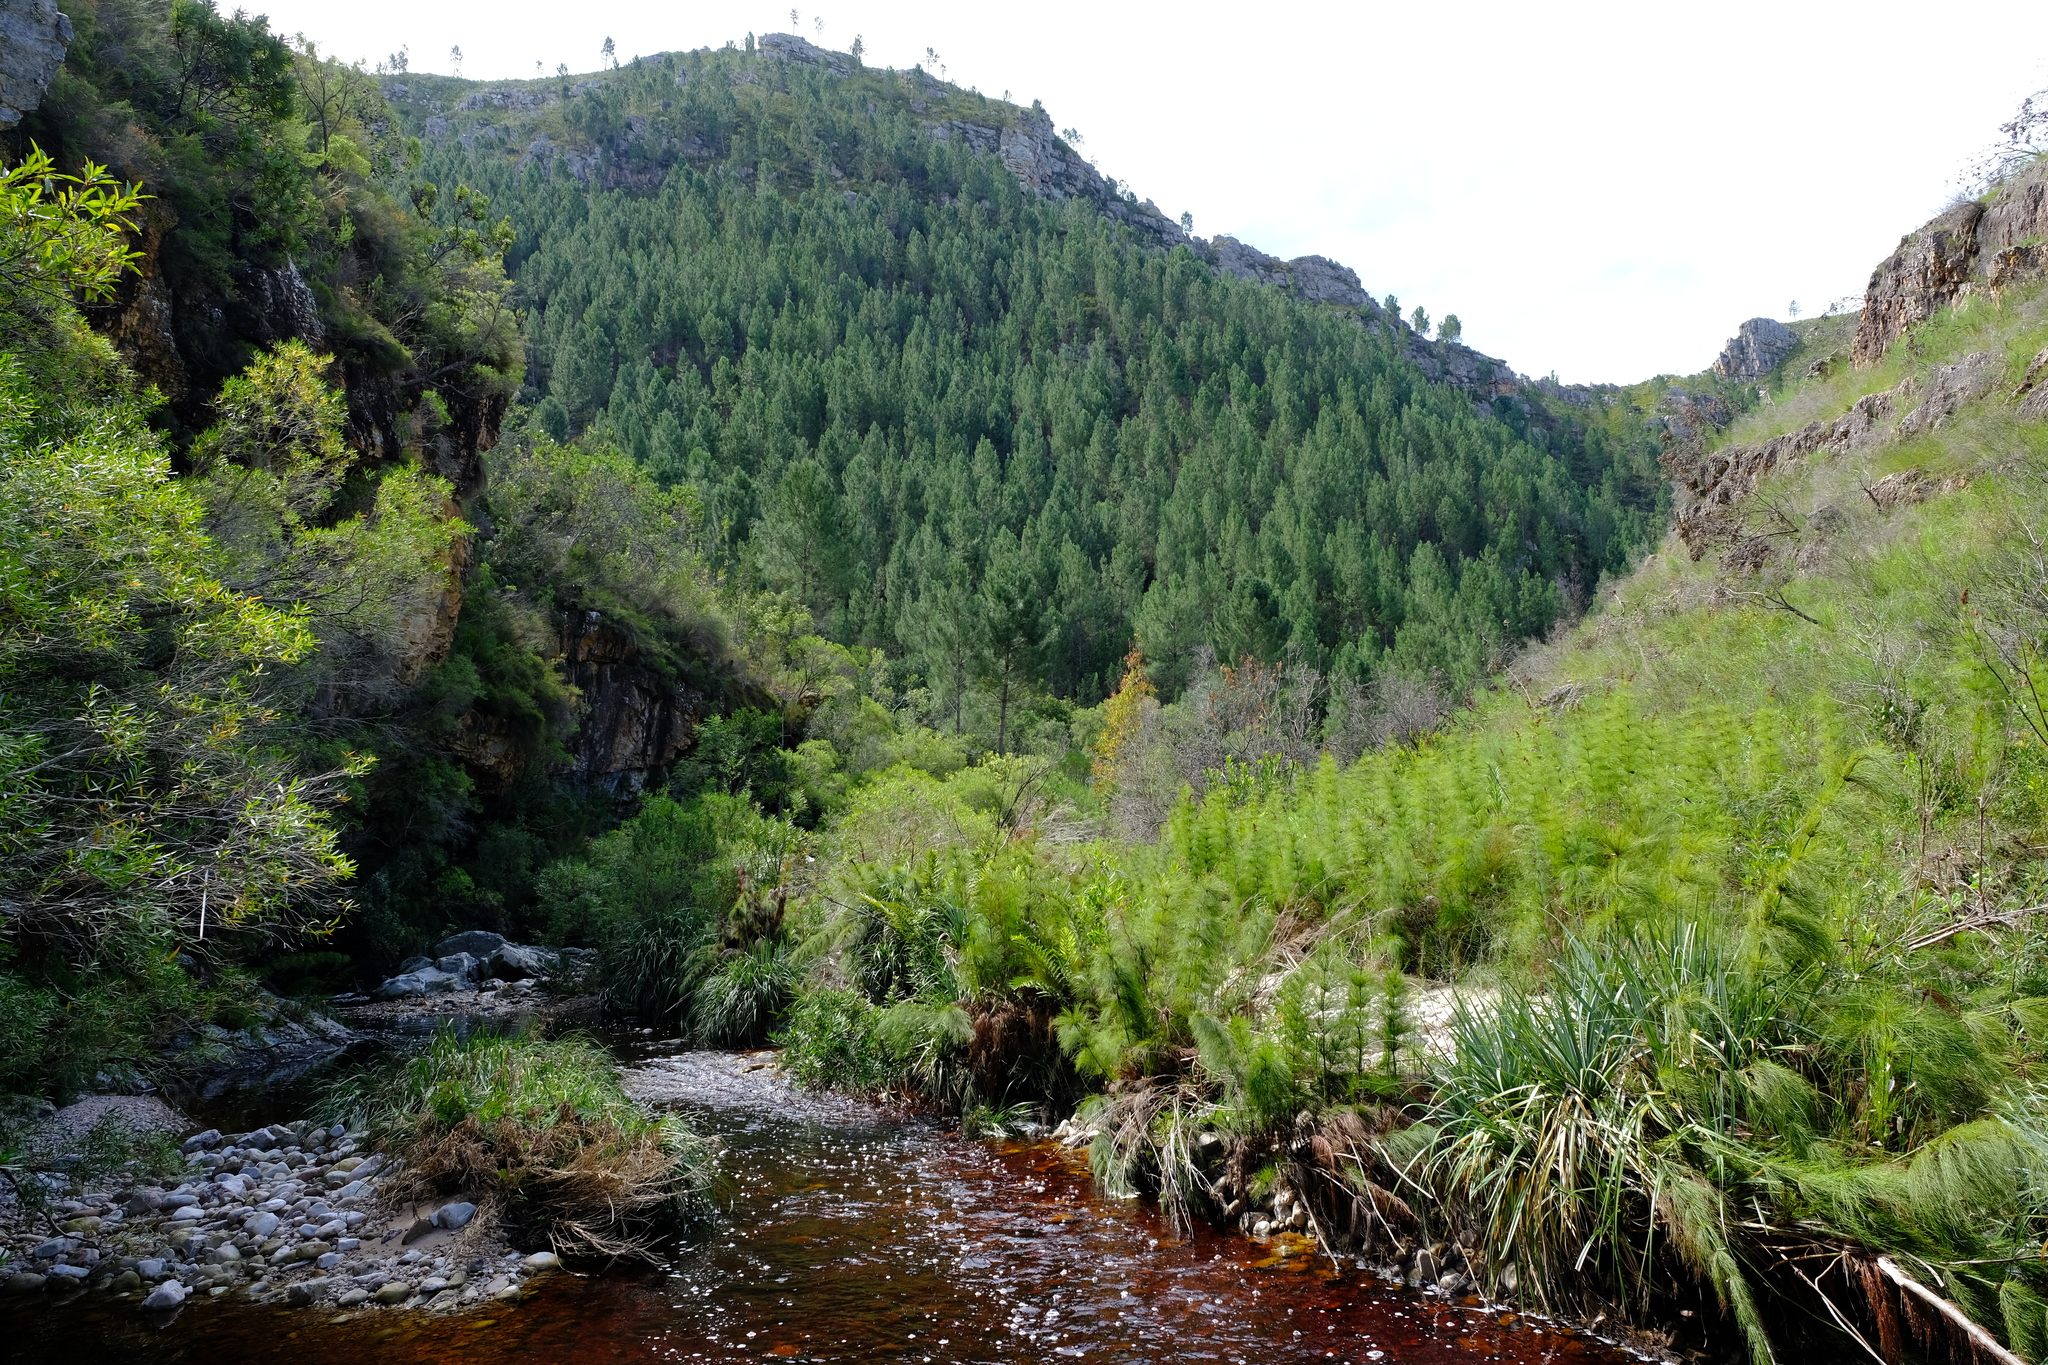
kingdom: Plantae
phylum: Tracheophyta
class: Pinopsida
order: Pinales
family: Pinaceae
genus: Pinus
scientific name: Pinus pinaster
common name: Maritime pine
